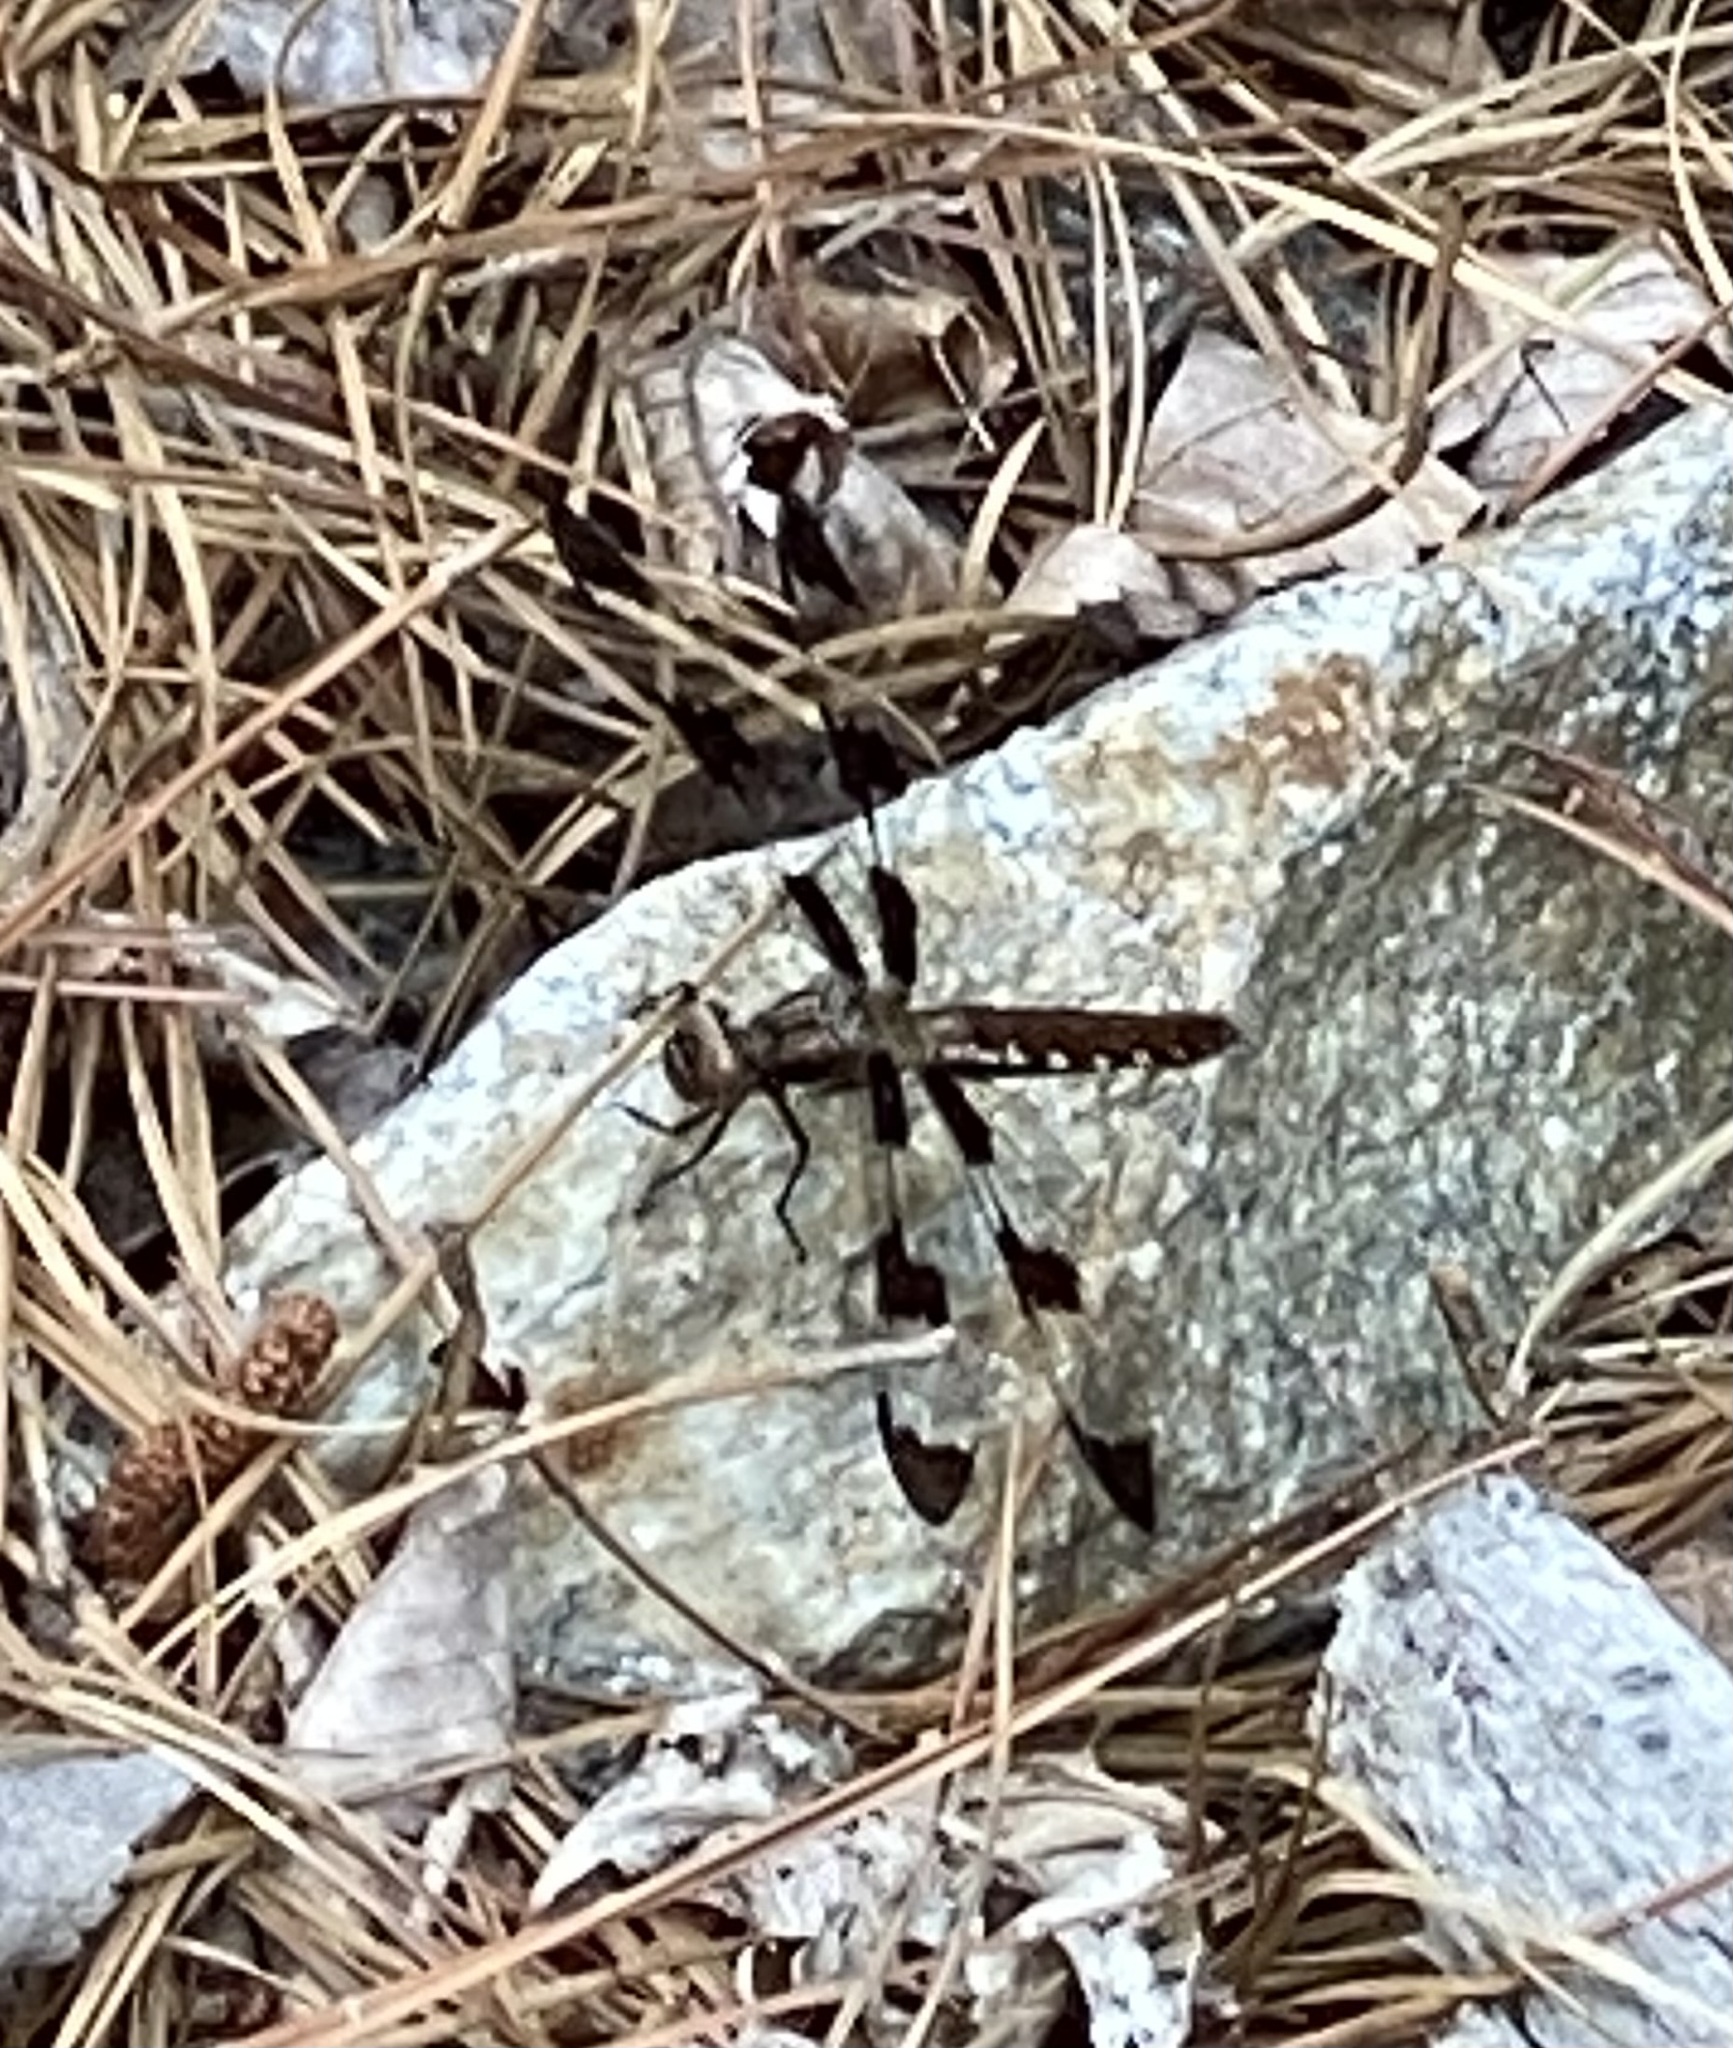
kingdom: Animalia
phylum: Arthropoda
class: Insecta
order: Odonata
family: Libellulidae
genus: Plathemis
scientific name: Plathemis lydia
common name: Common whitetail
